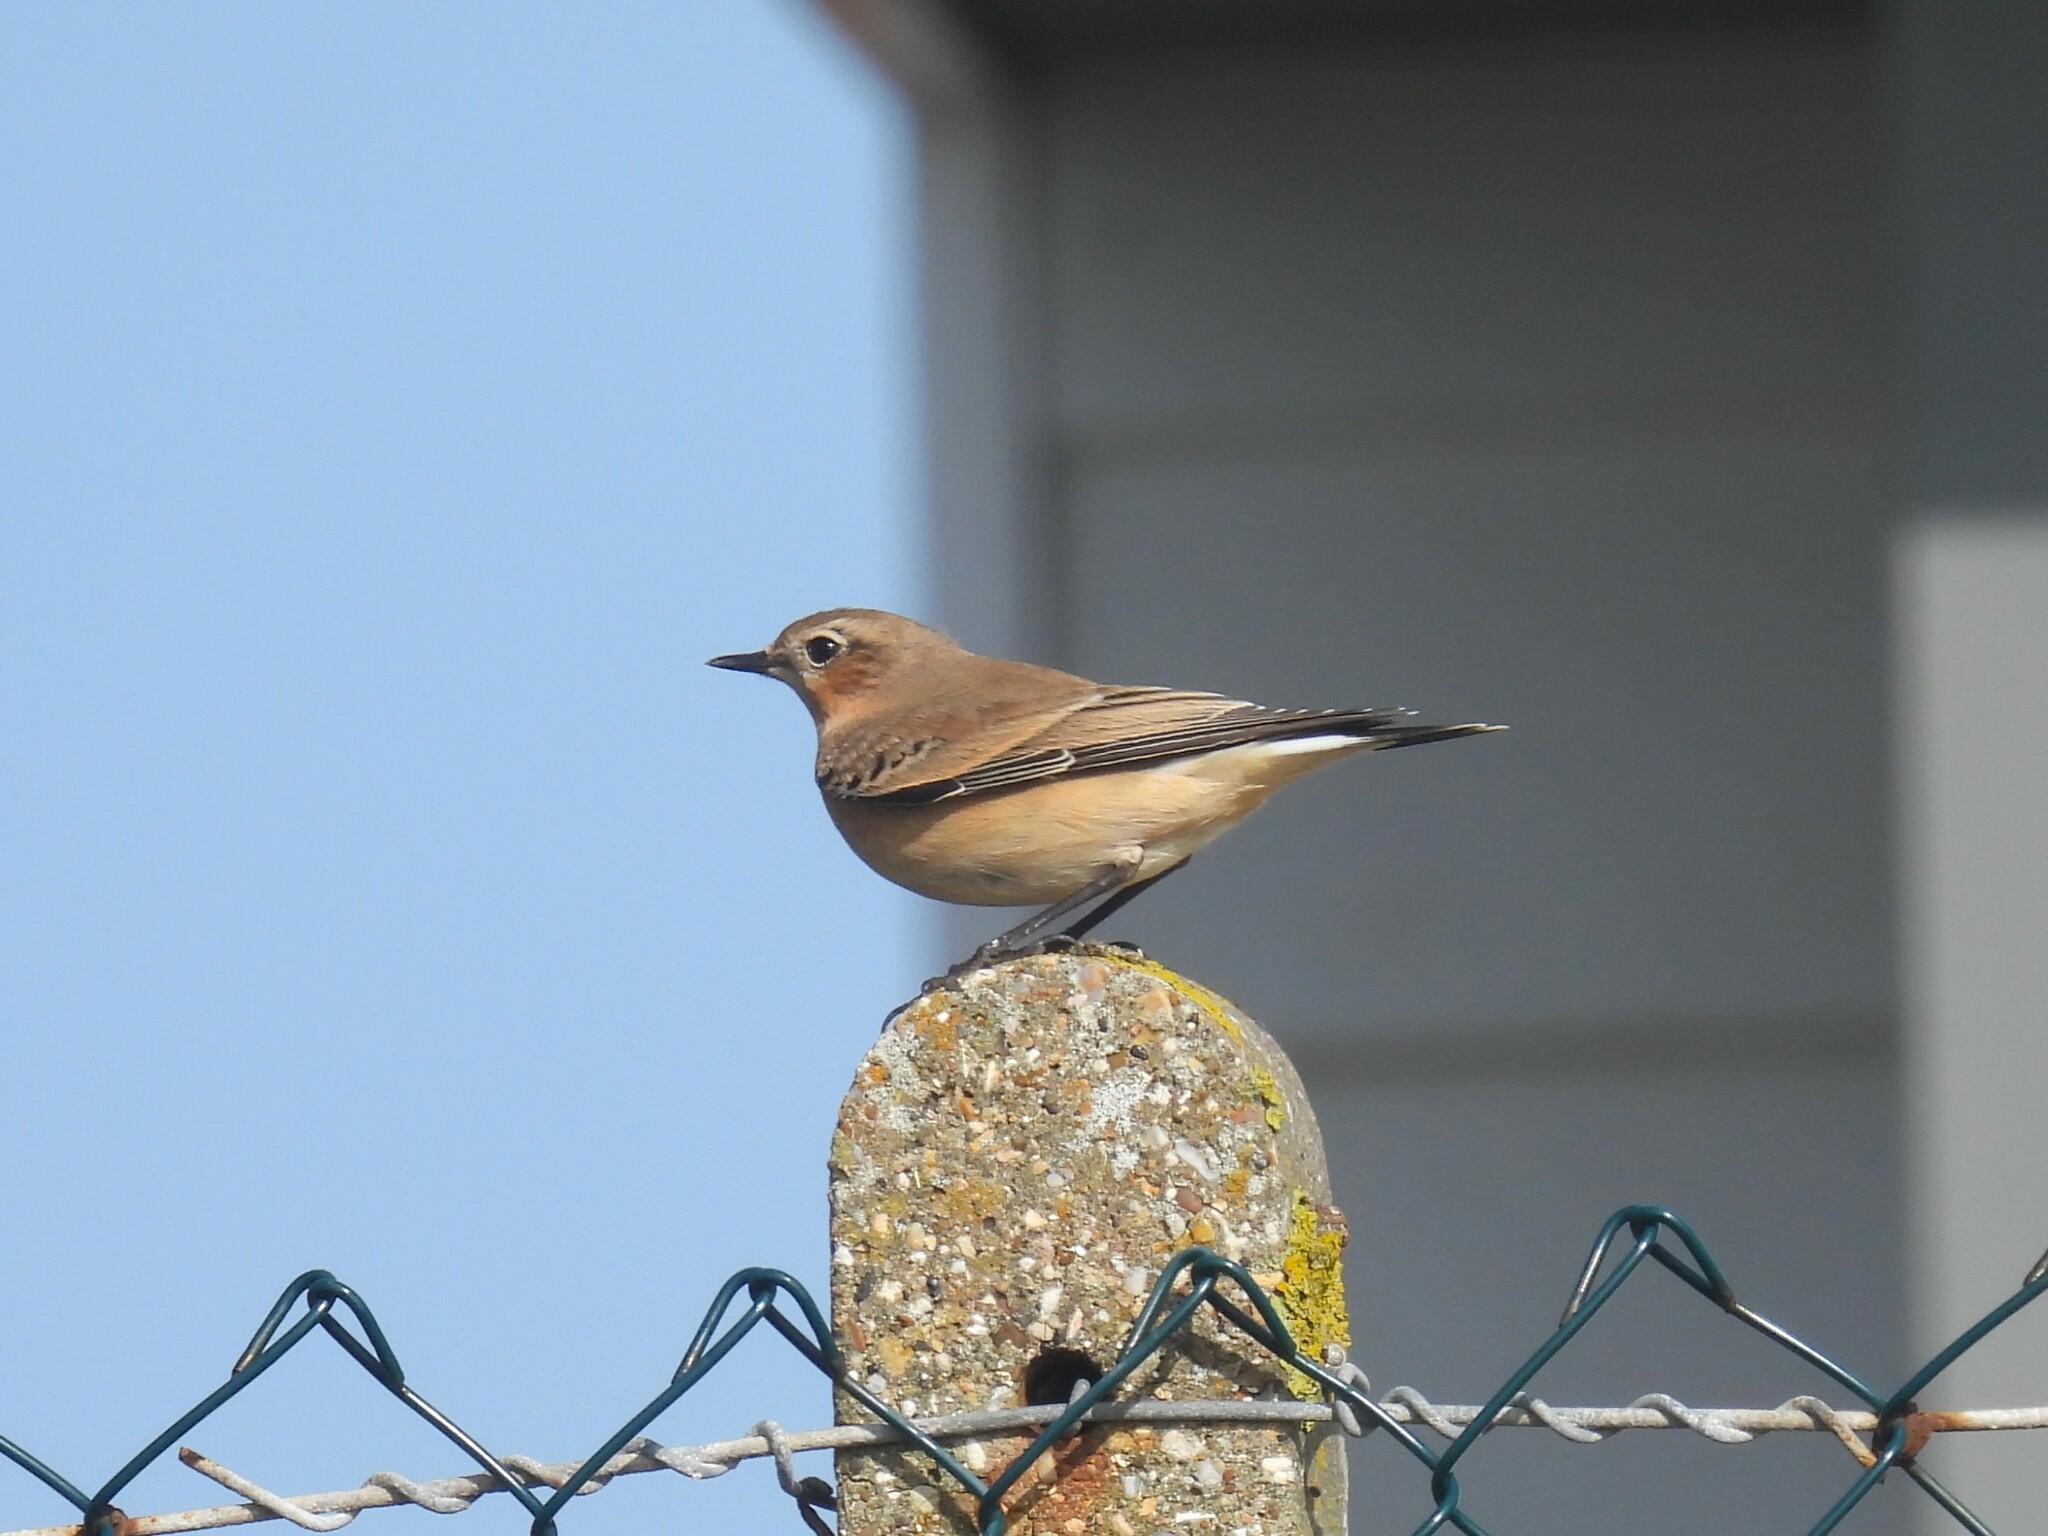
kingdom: Animalia
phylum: Chordata
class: Aves
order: Passeriformes
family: Muscicapidae
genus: Oenanthe
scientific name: Oenanthe oenanthe
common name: Northern wheatear
